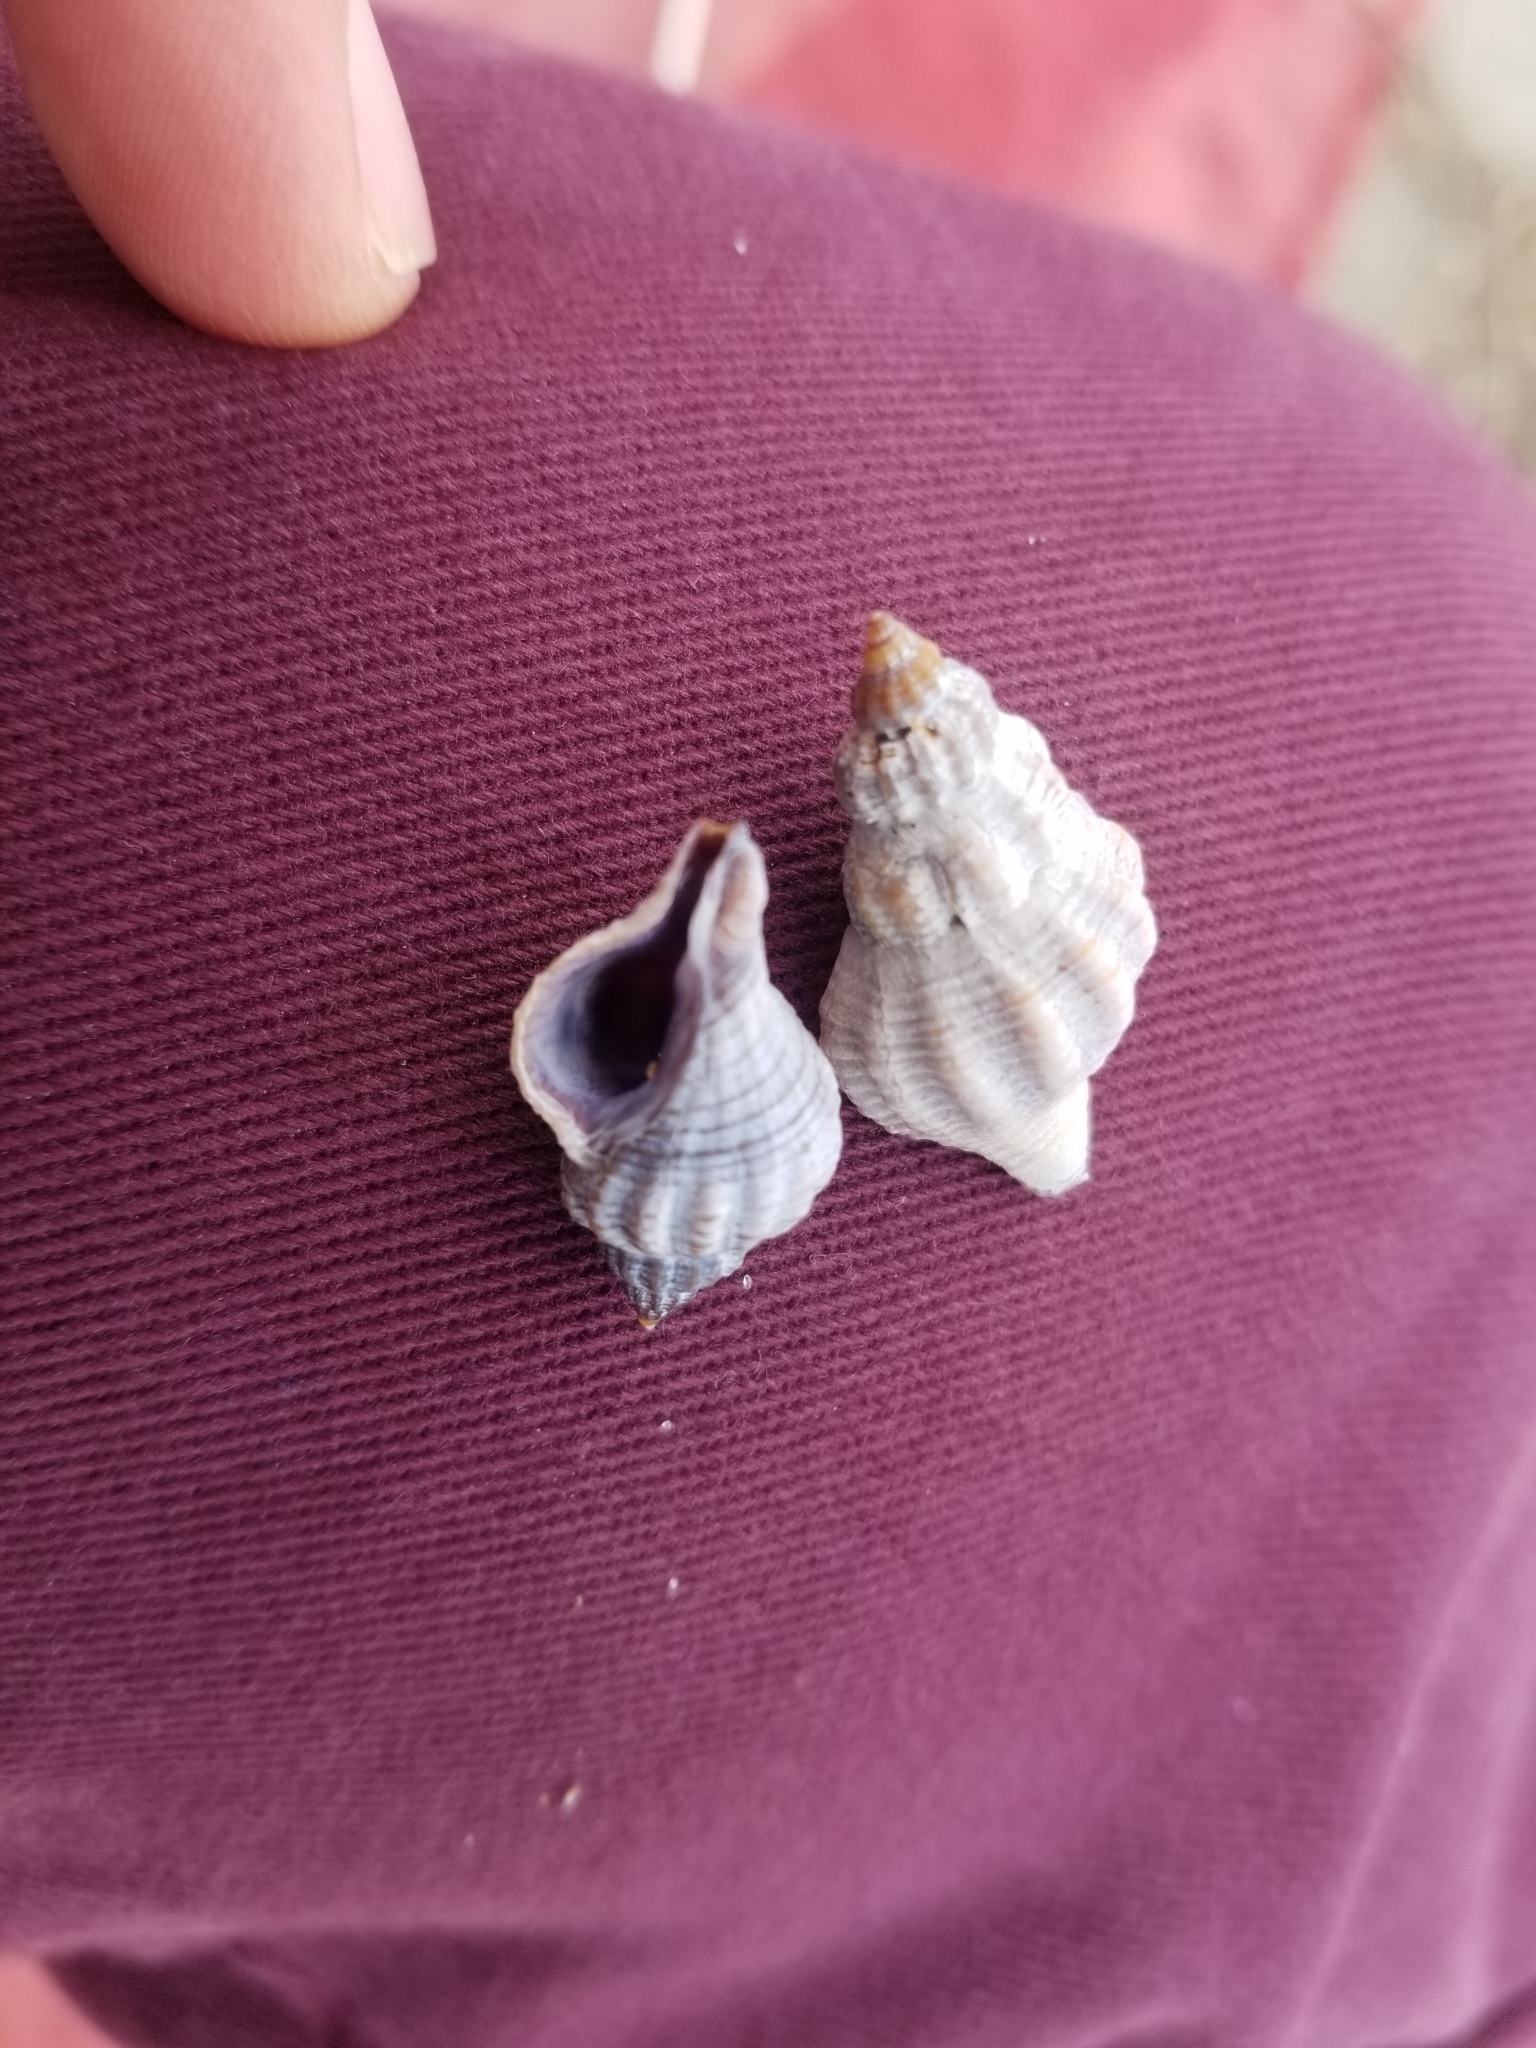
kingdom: Animalia
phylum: Mollusca
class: Gastropoda
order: Neogastropoda
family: Muricidae
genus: Urosalpinx
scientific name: Urosalpinx cinerea
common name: American sting winkle
